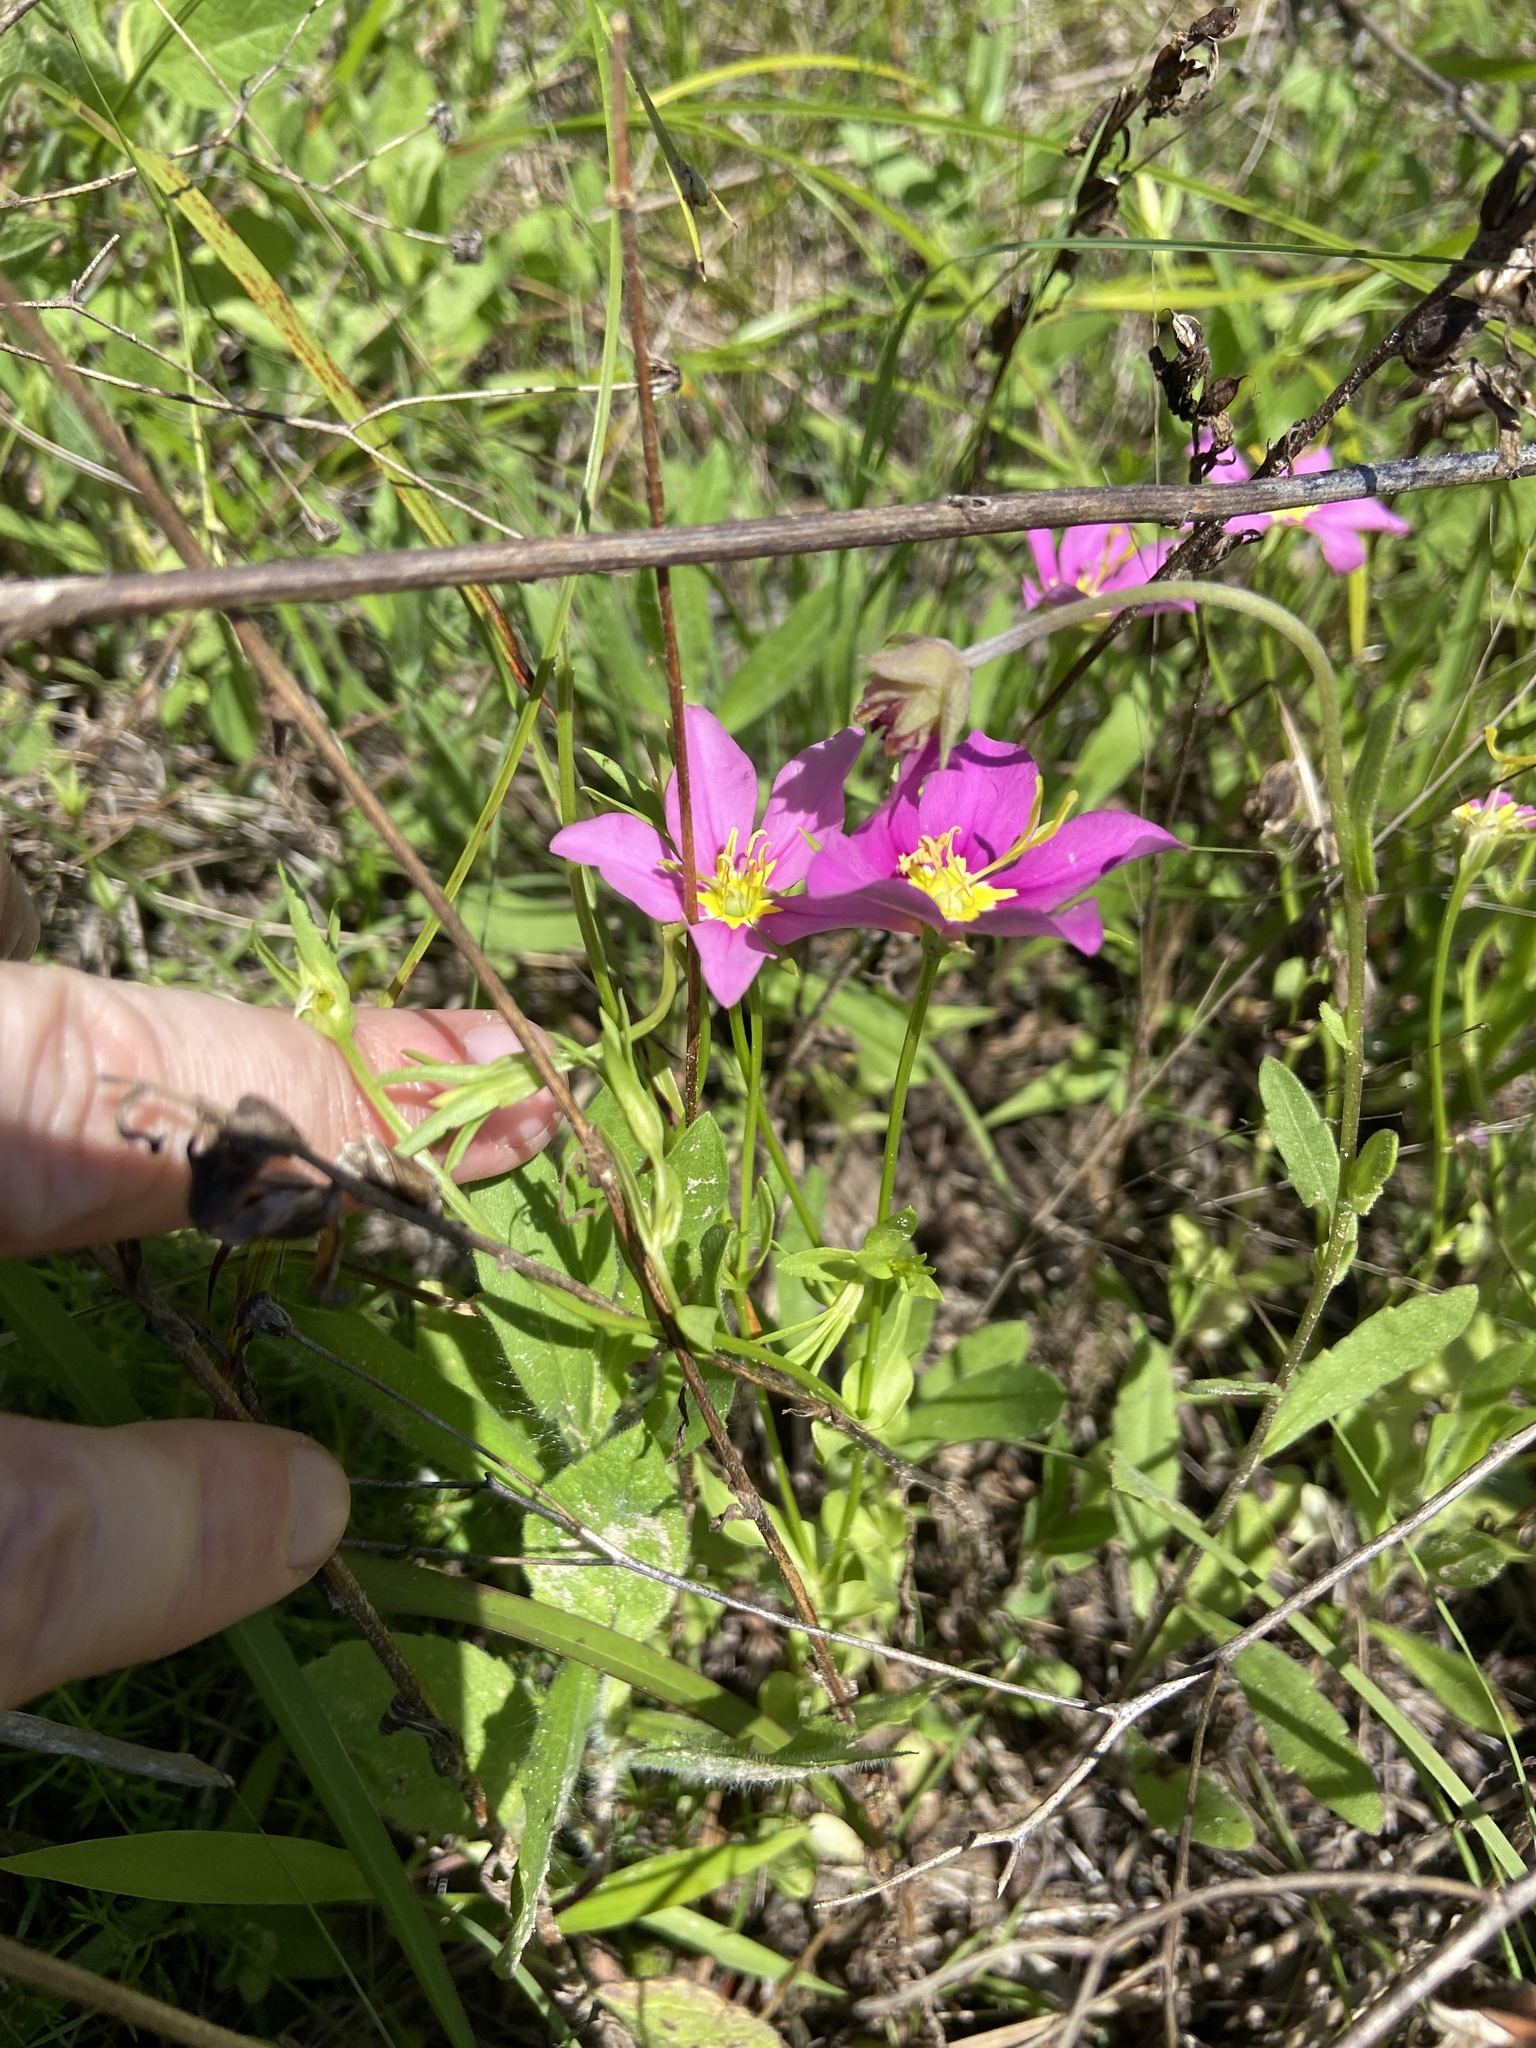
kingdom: Plantae
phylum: Tracheophyta
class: Magnoliopsida
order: Gentianales
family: Gentianaceae
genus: Sabatia
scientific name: Sabatia campestris
